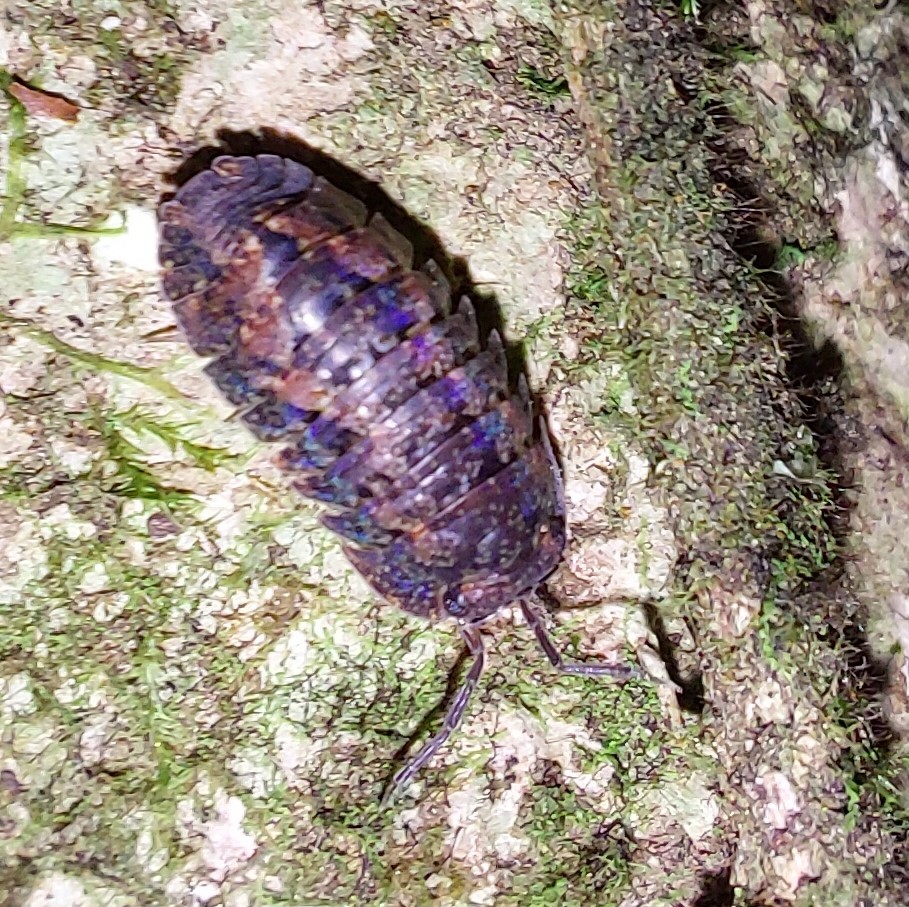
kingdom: Animalia
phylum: Arthropoda
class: Malacostraca
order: Isopoda
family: Armadillidae
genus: Cubaris
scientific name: Cubaris tarangensis
